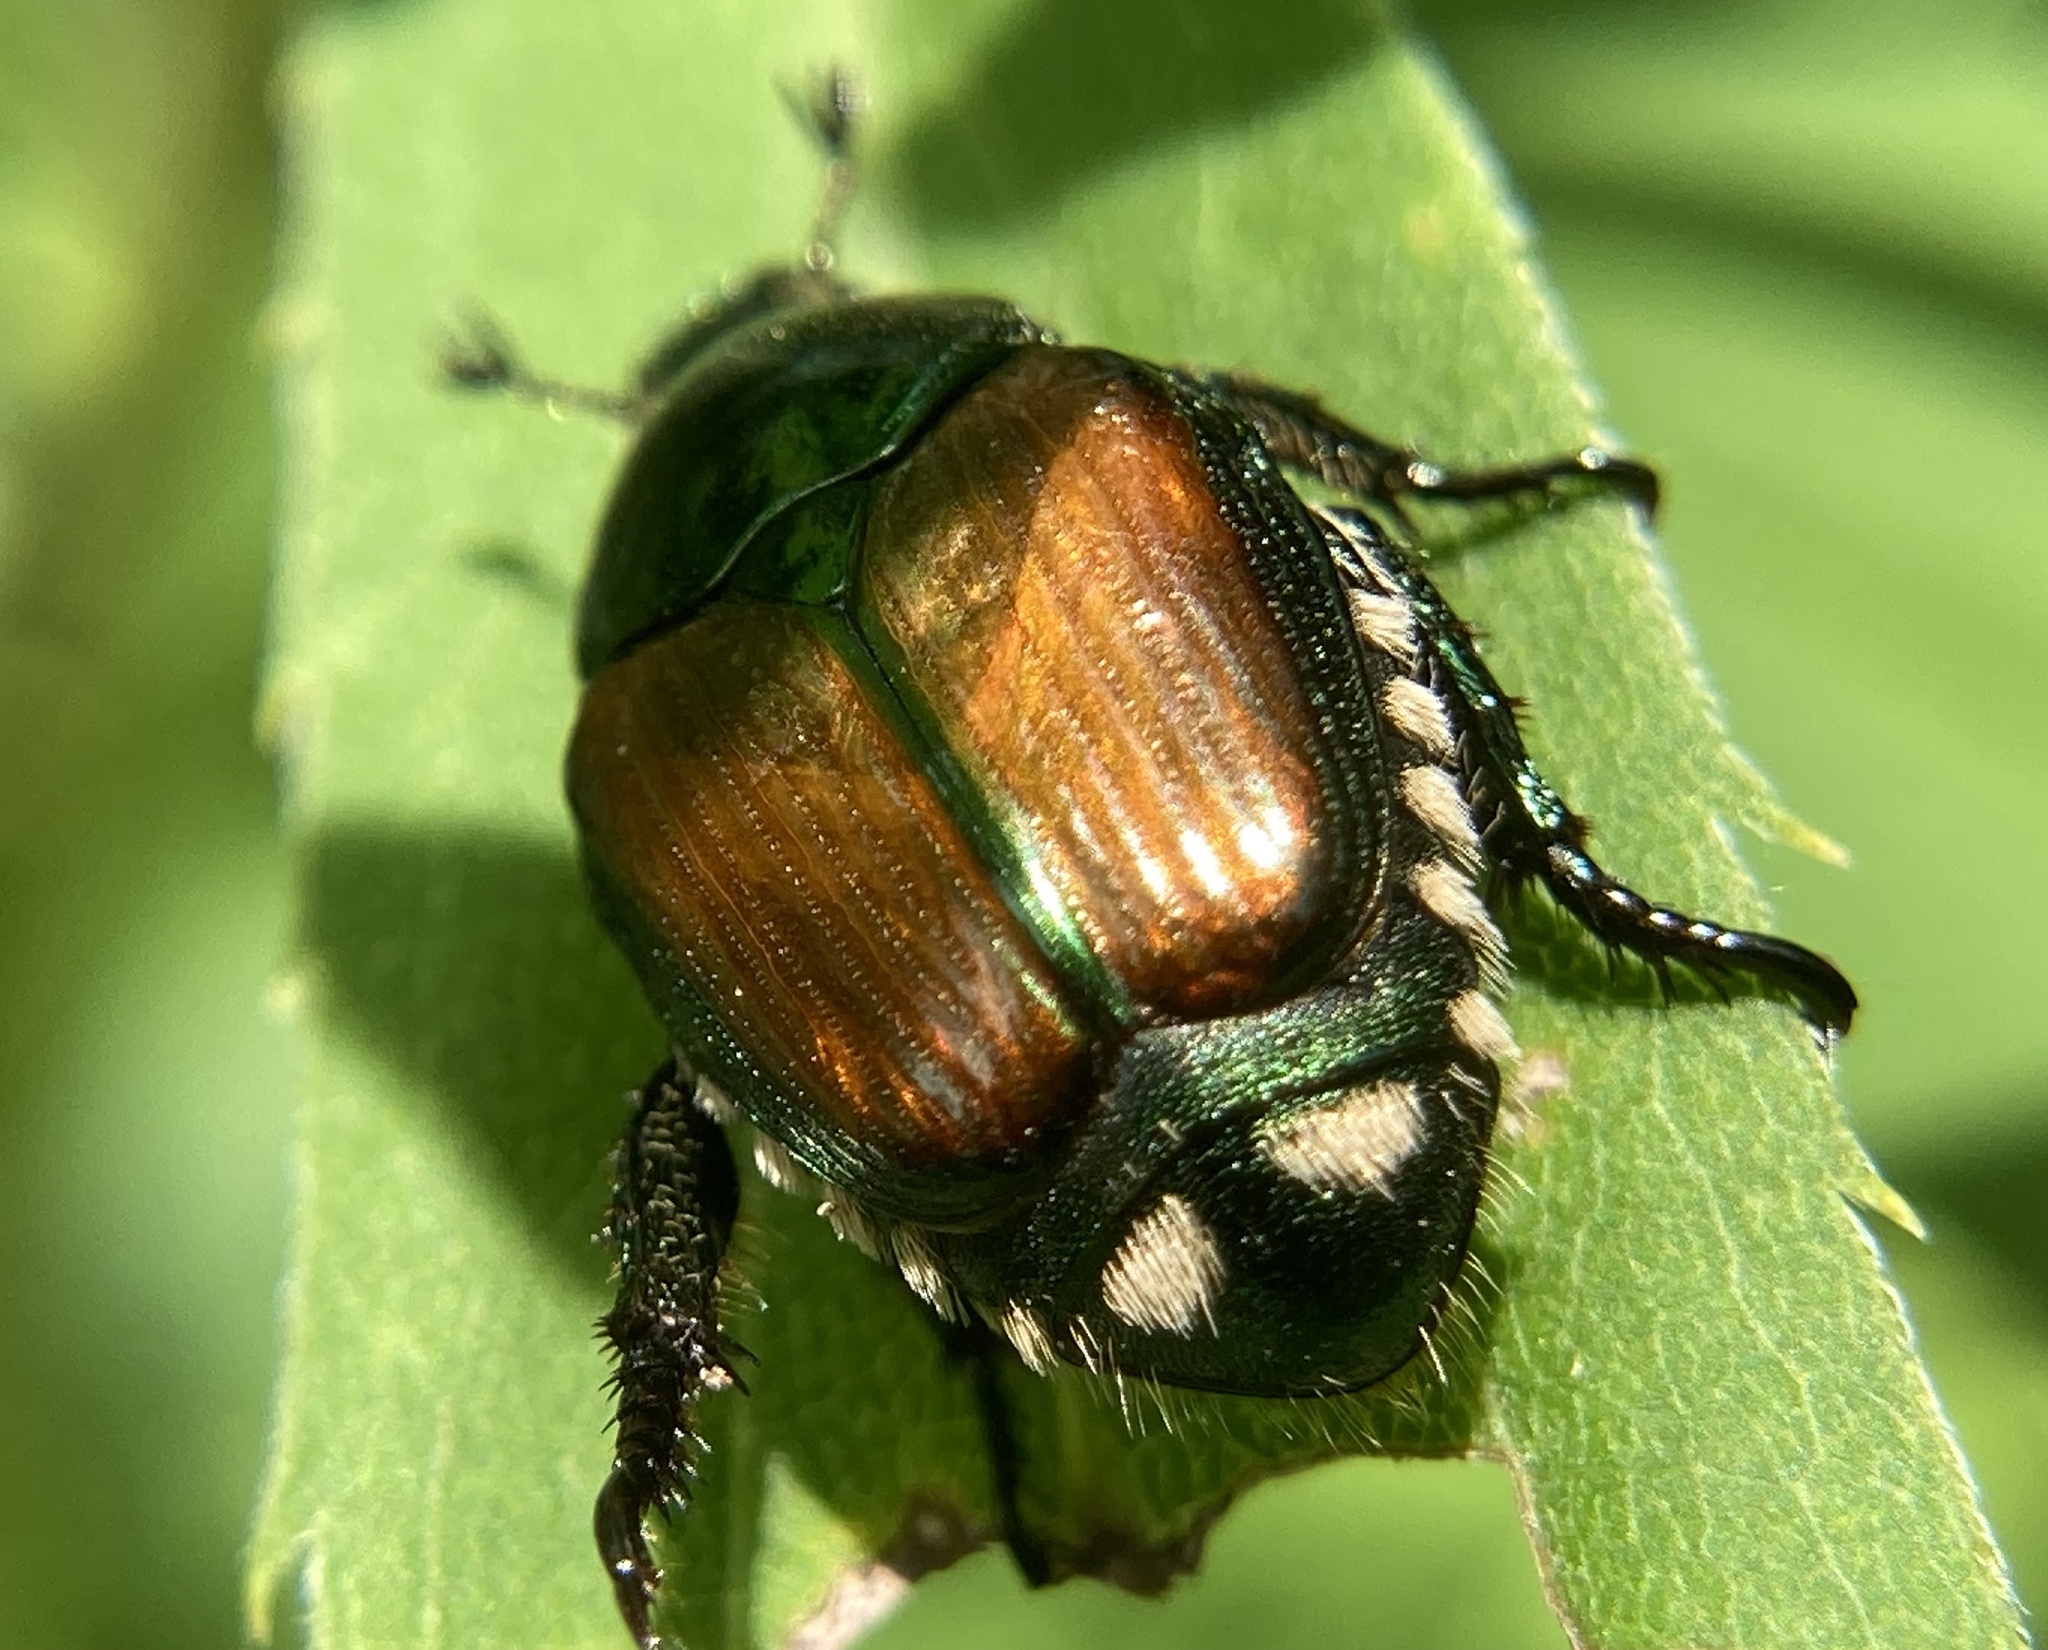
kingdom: Animalia
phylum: Arthropoda
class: Insecta
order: Coleoptera
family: Scarabaeidae
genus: Popillia
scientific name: Popillia japonica
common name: Japanese beetle
